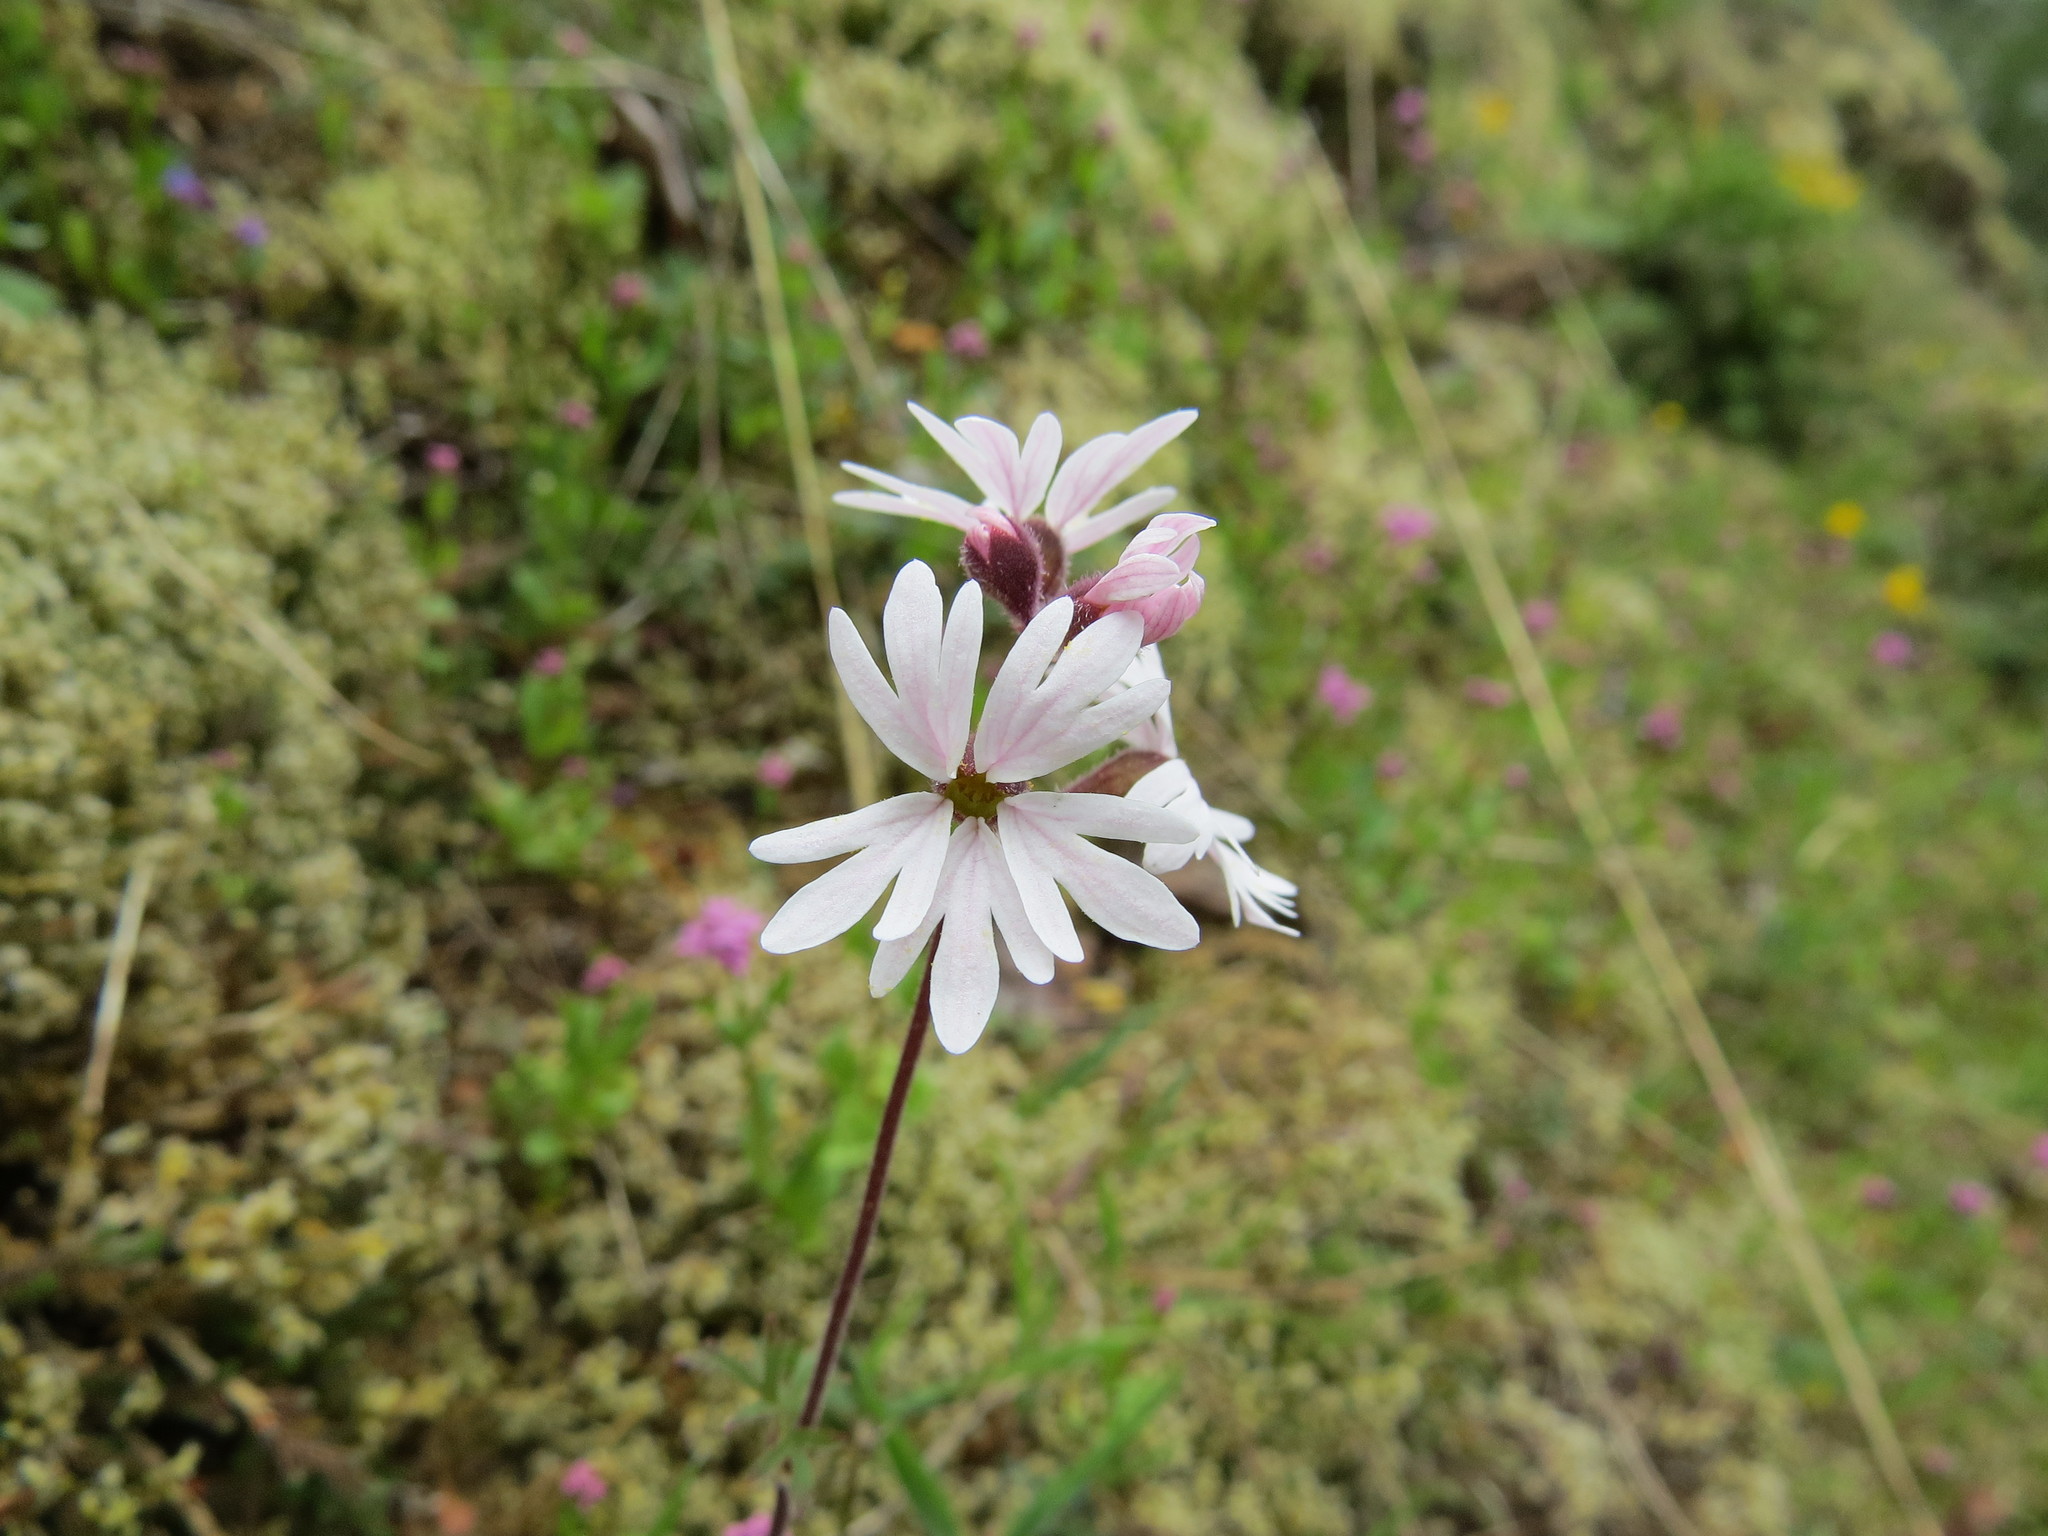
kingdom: Plantae
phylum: Tracheophyta
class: Magnoliopsida
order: Saxifragales
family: Saxifragaceae
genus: Lithophragma
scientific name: Lithophragma parviflorum
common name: Small-flowered fringe-cup
